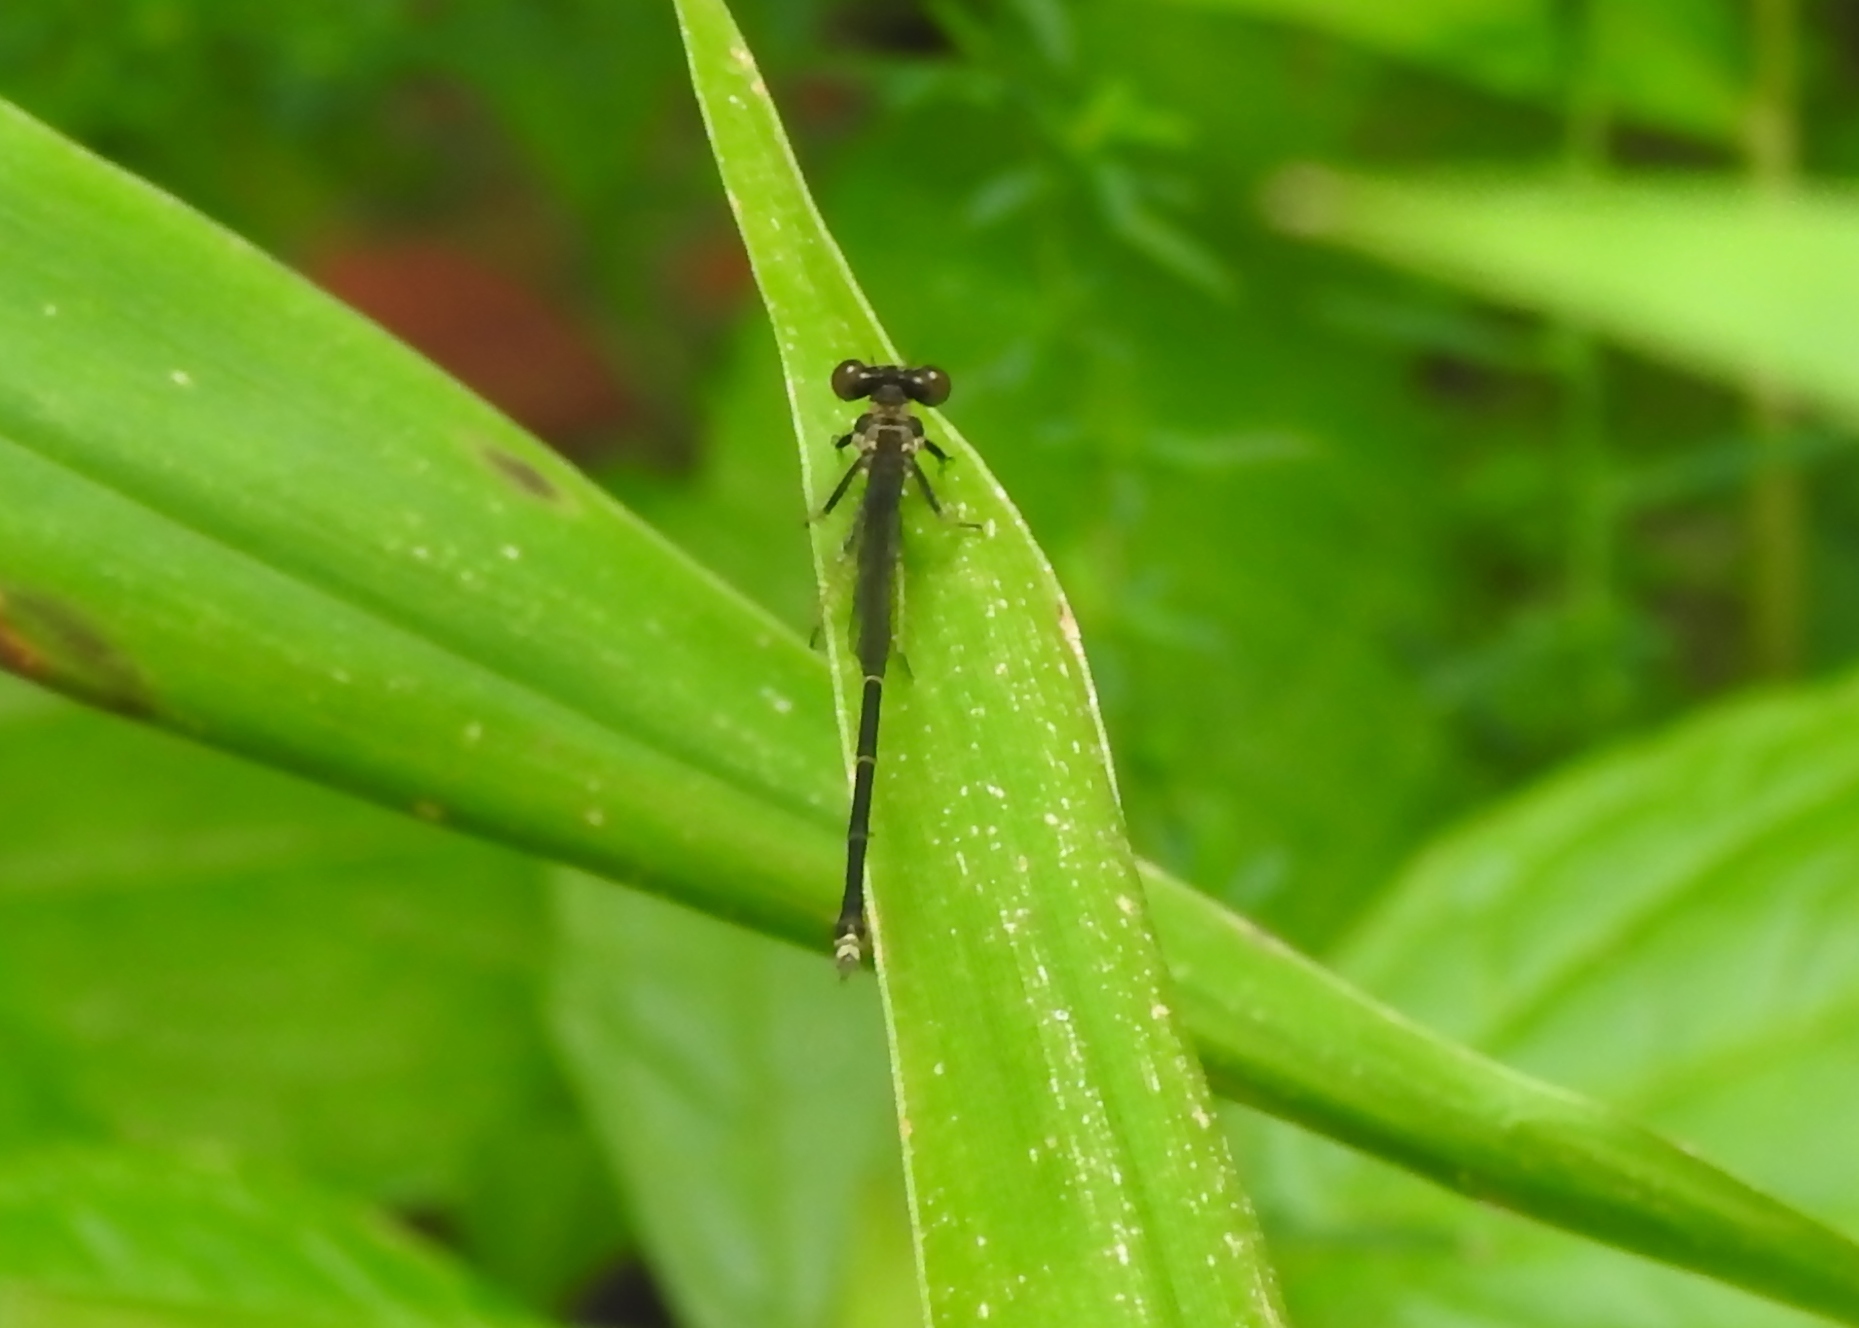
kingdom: Animalia
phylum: Arthropoda
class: Insecta
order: Odonata
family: Coenagrionidae
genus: Argia
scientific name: Argia tibialis
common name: Blue-tipped dancer
